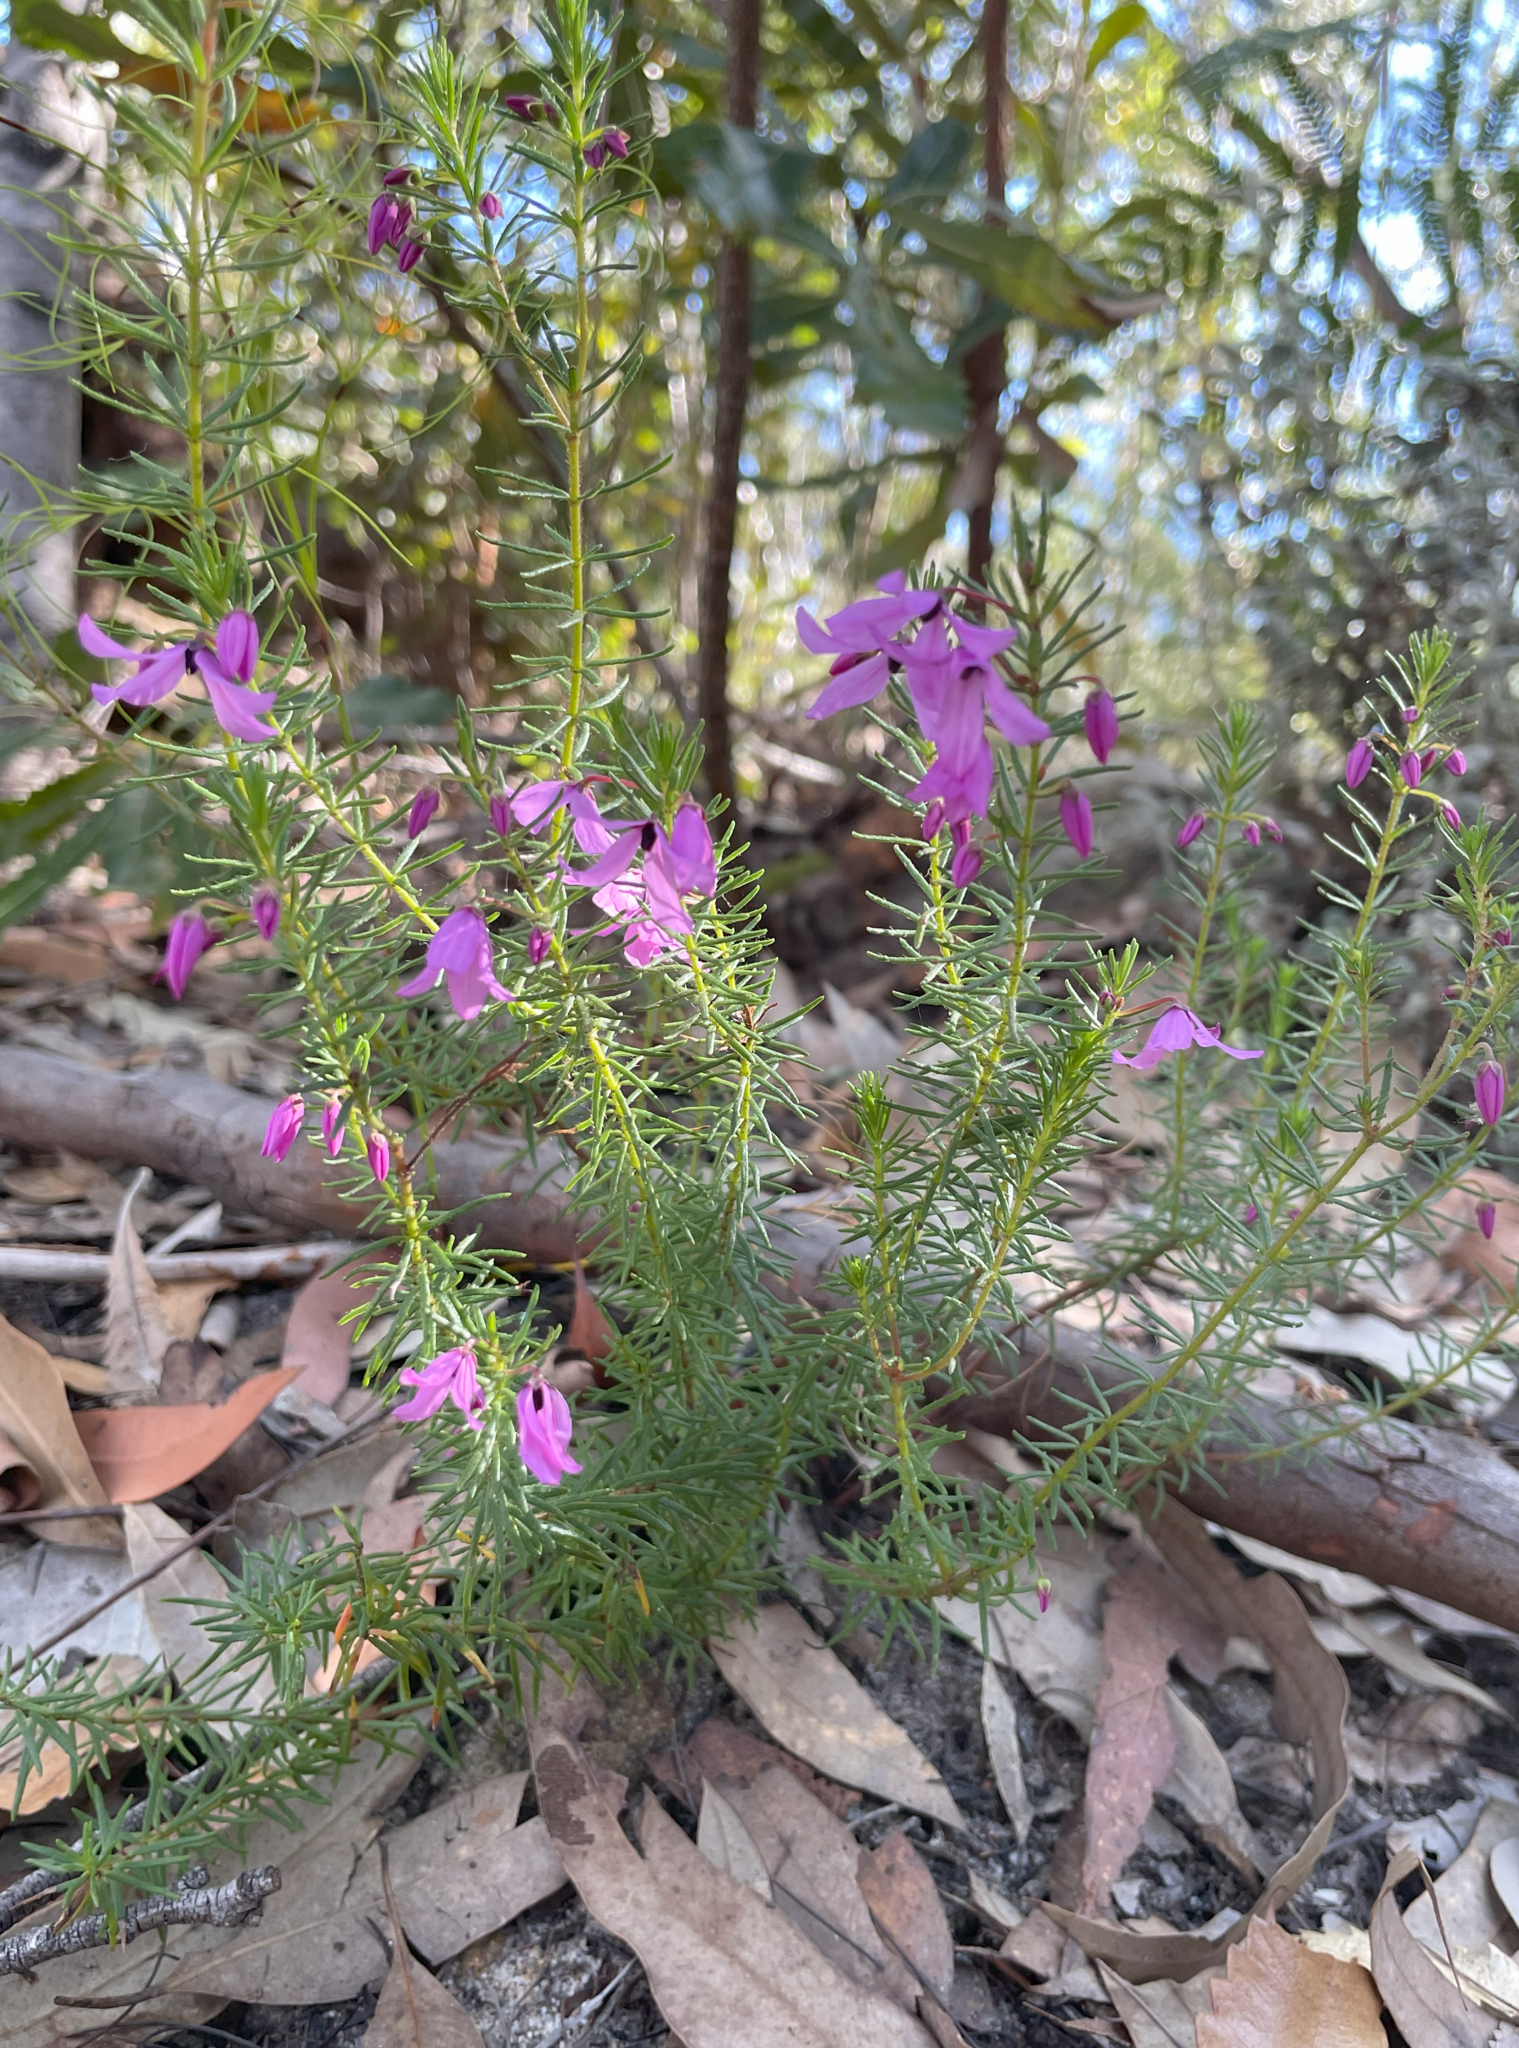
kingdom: Plantae
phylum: Tracheophyta
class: Magnoliopsida
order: Oxalidales
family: Elaeocarpaceae
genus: Tetratheca
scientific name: Tetratheca neglecta
